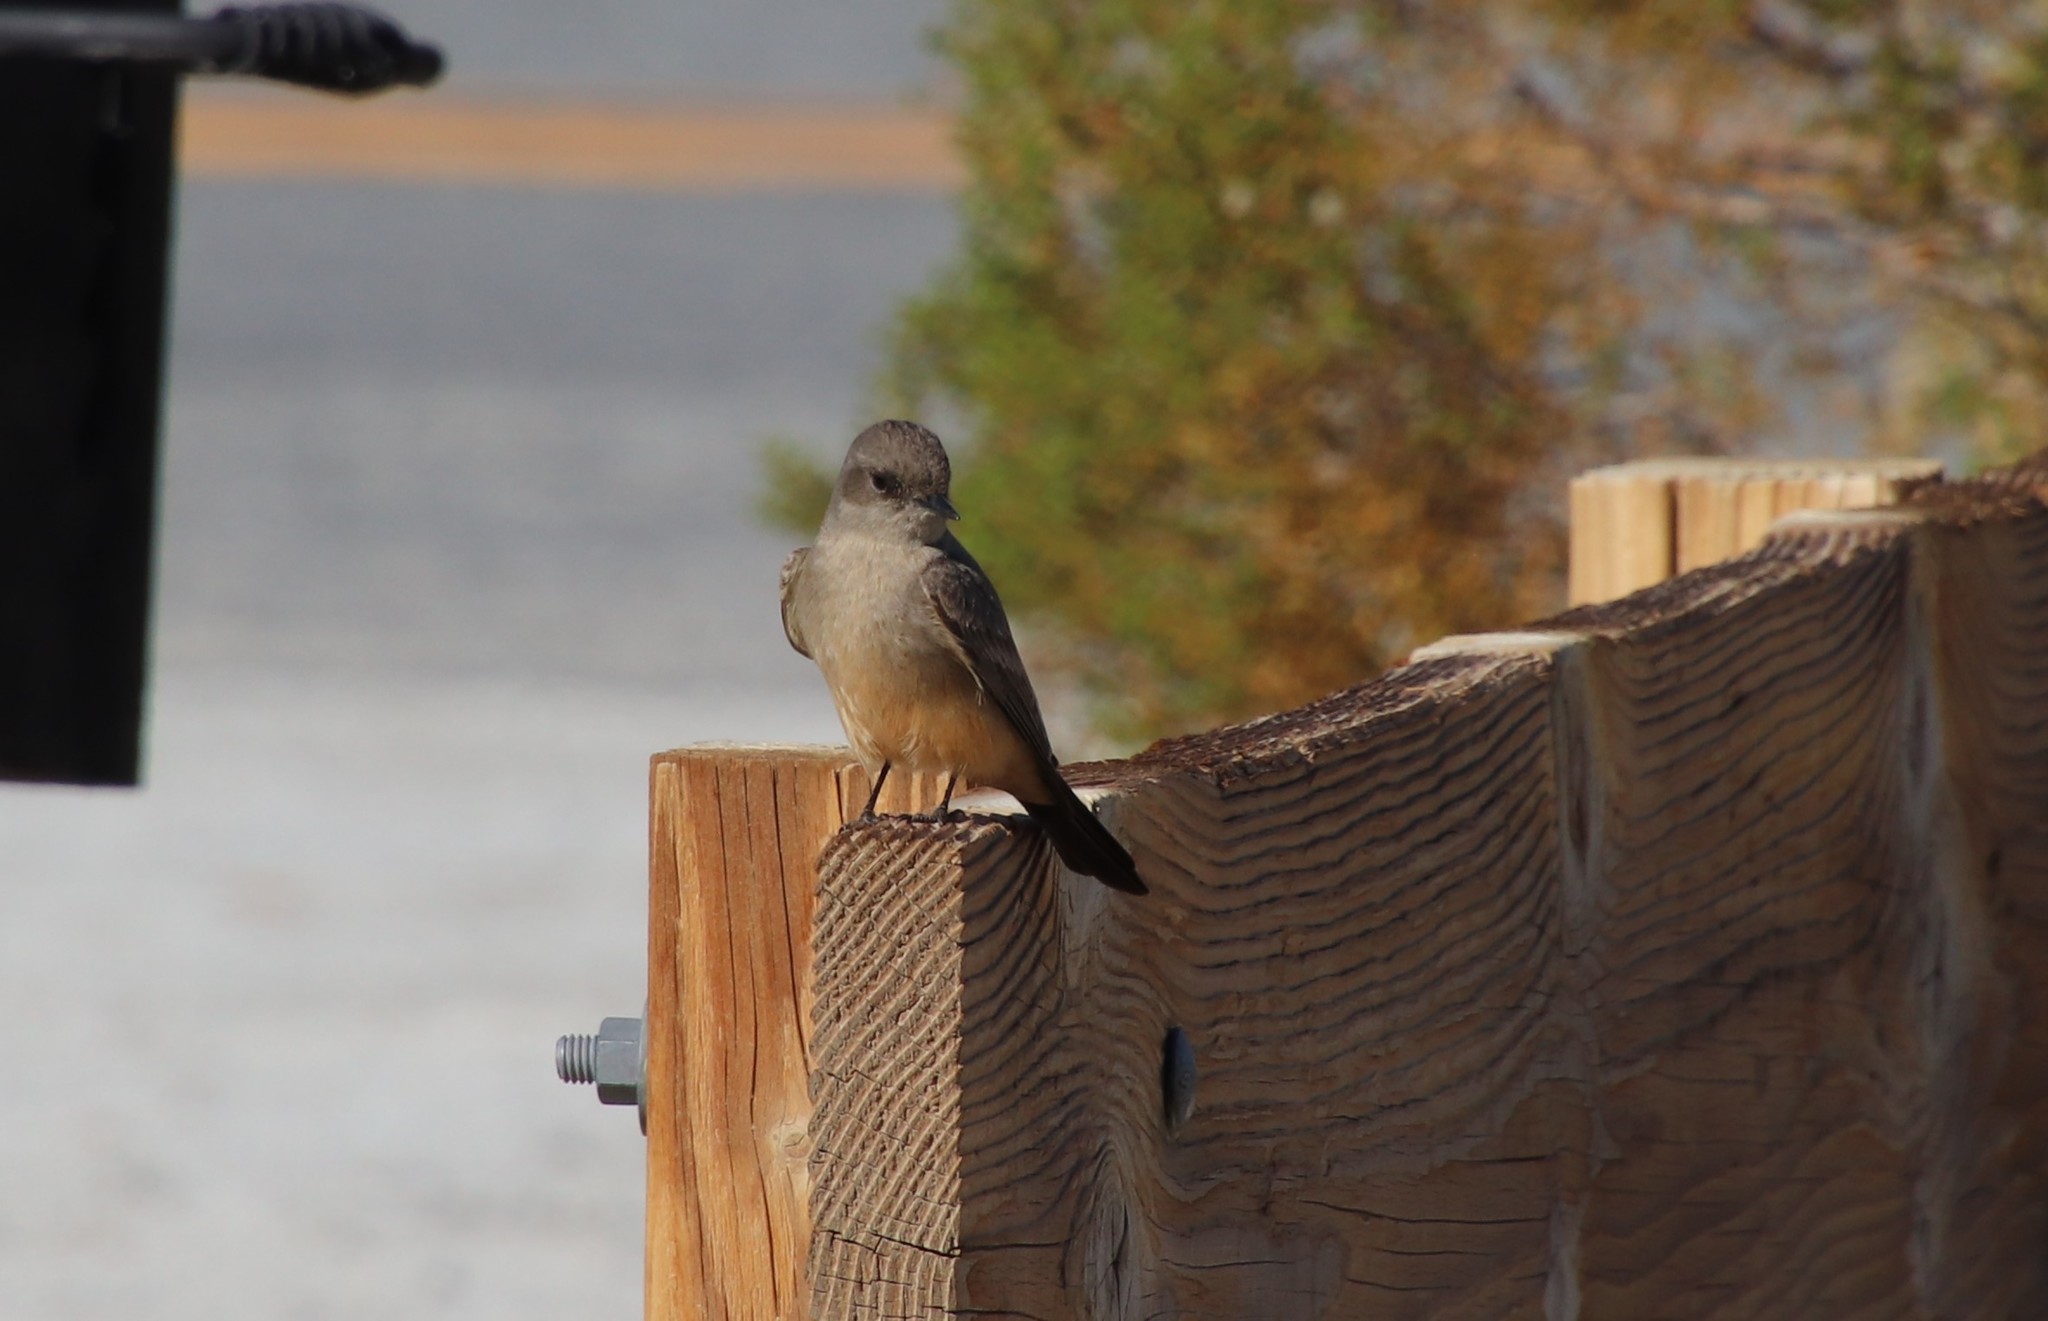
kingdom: Animalia
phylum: Chordata
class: Aves
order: Passeriformes
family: Tyrannidae
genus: Sayornis
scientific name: Sayornis saya
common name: Say's phoebe
